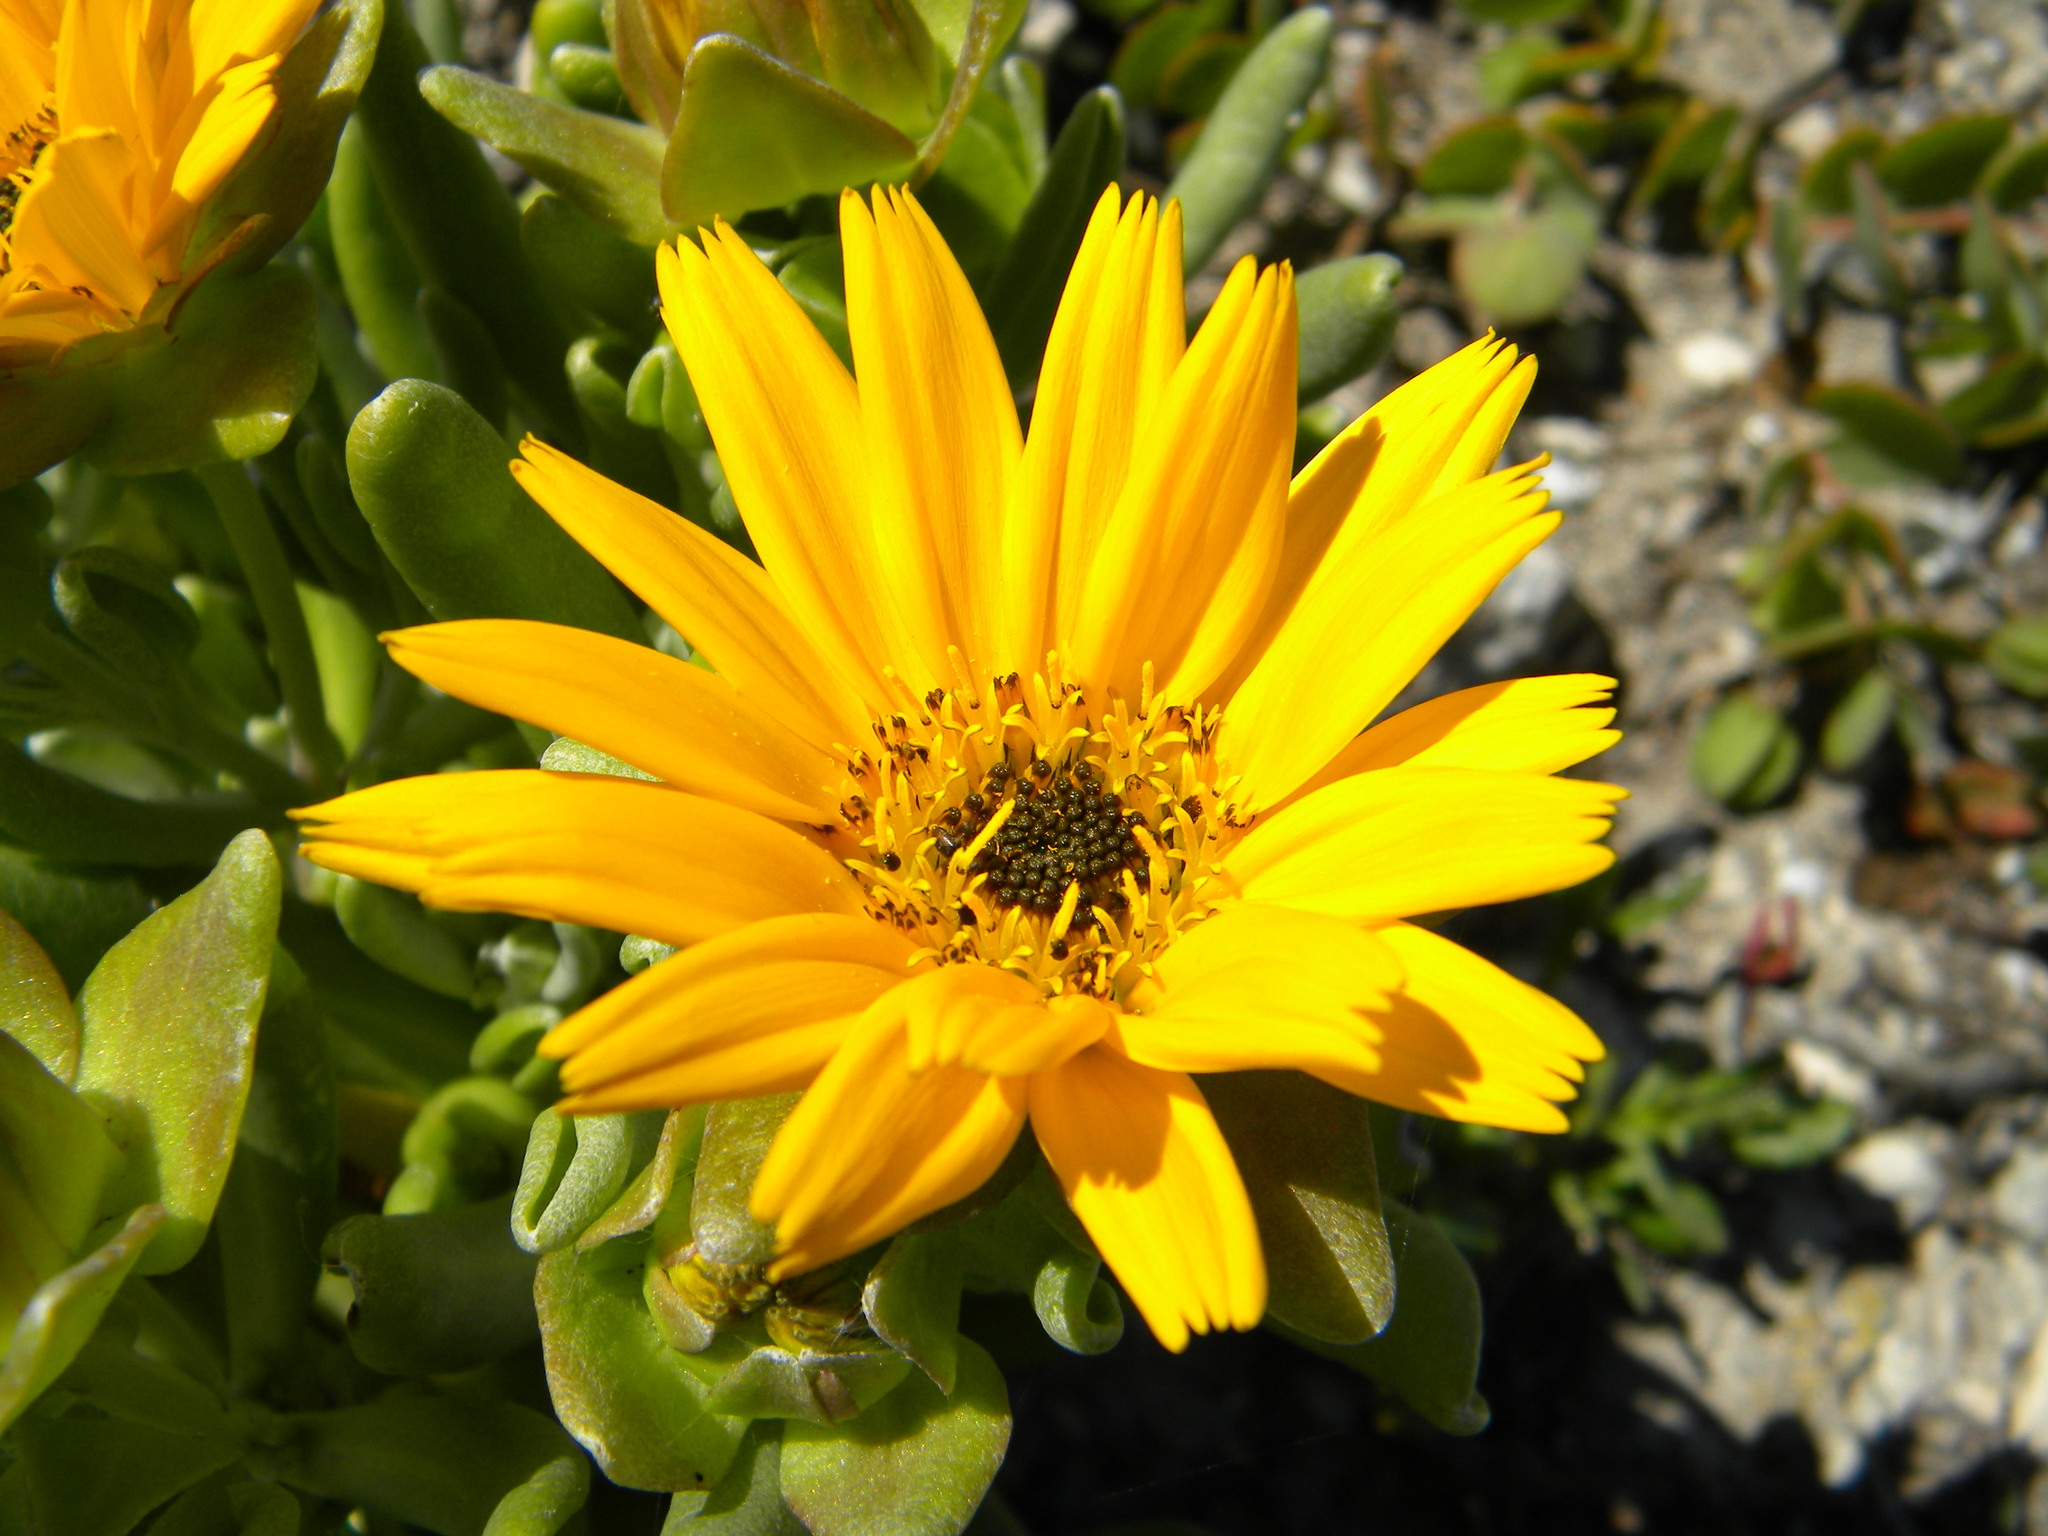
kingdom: Plantae
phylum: Tracheophyta
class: Magnoliopsida
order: Asterales
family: Asteraceae
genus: Didelta
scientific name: Didelta carnosa
